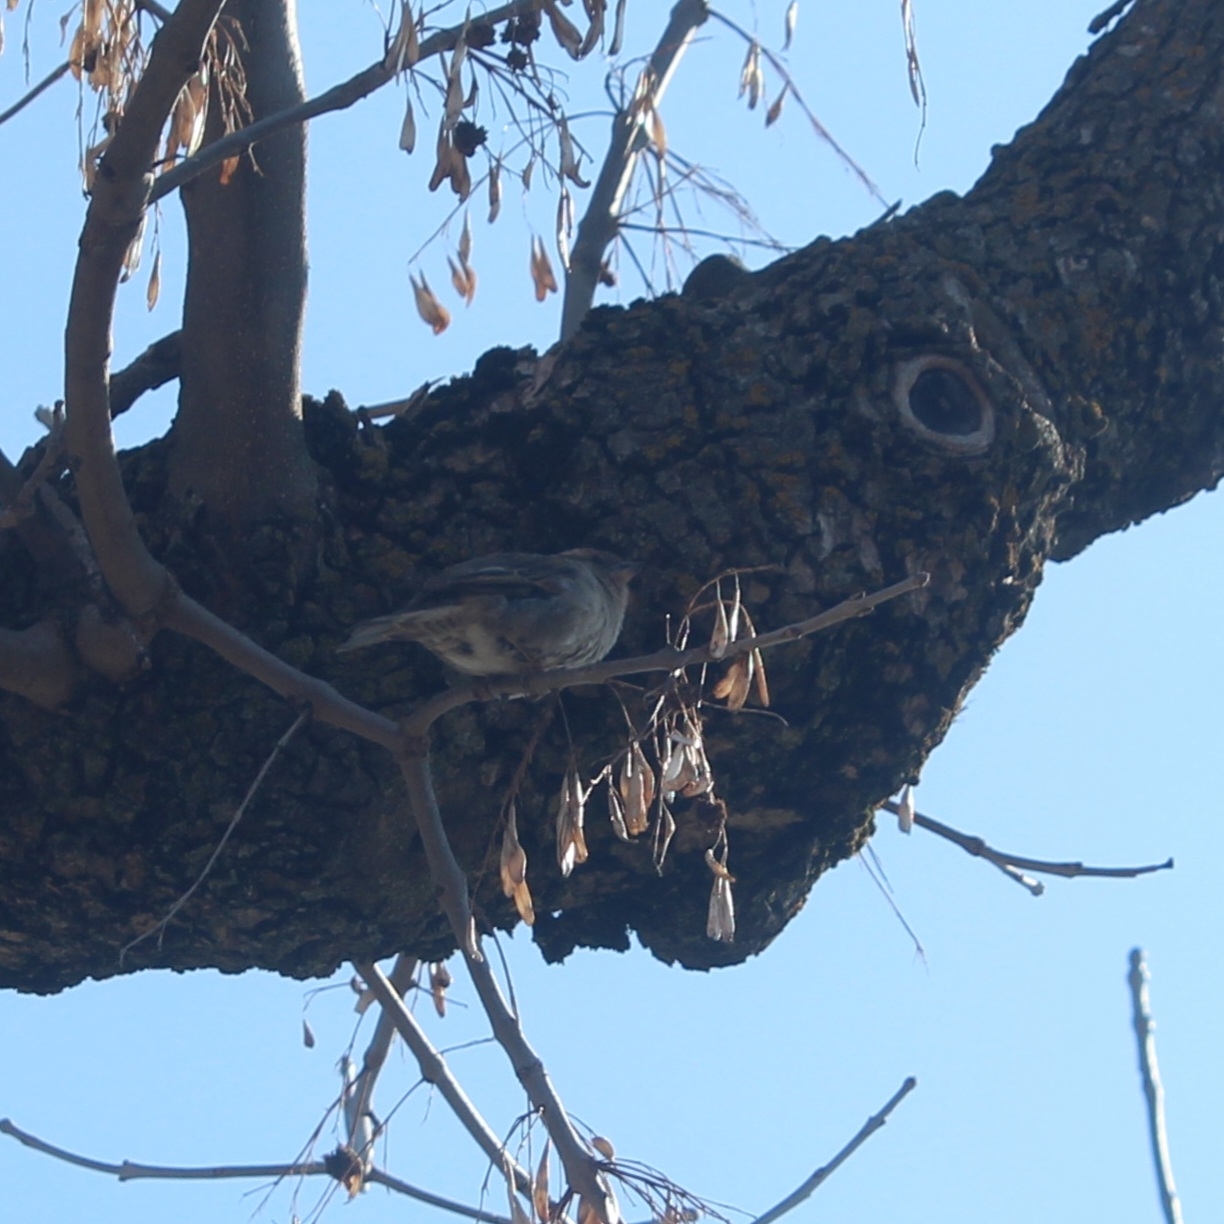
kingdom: Animalia
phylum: Chordata
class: Aves
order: Passeriformes
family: Passeridae
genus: Passer
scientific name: Passer domesticus
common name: House sparrow
